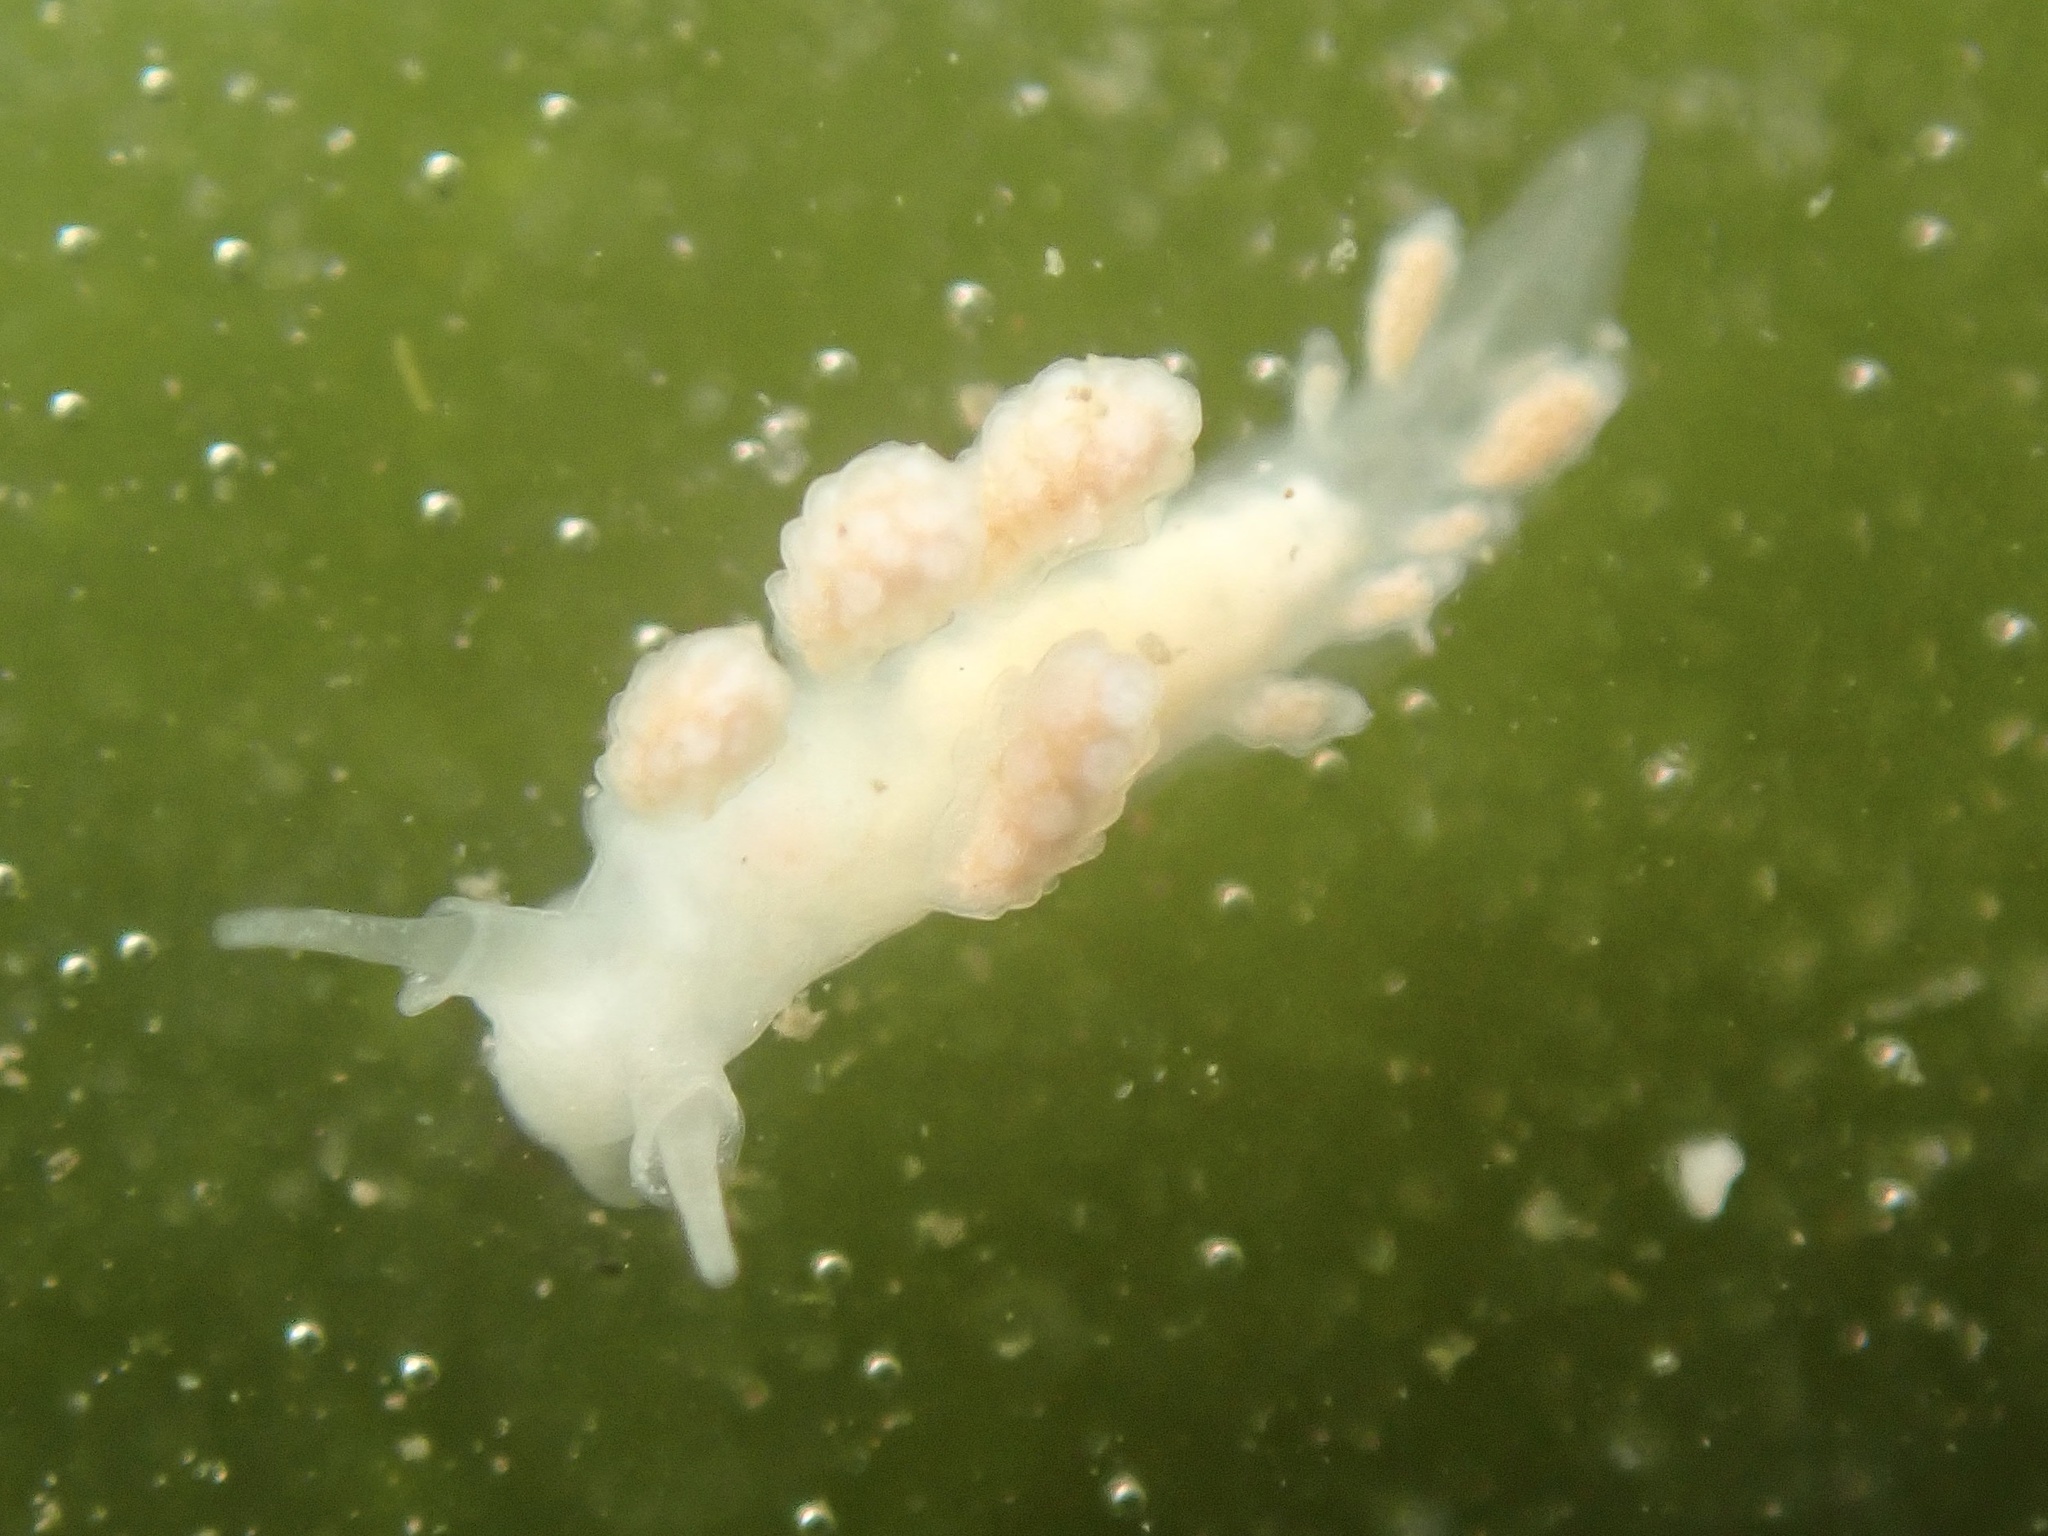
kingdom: Animalia
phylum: Mollusca
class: Gastropoda
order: Nudibranchia
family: Dotidae
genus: Doto
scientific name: Doto amyra
